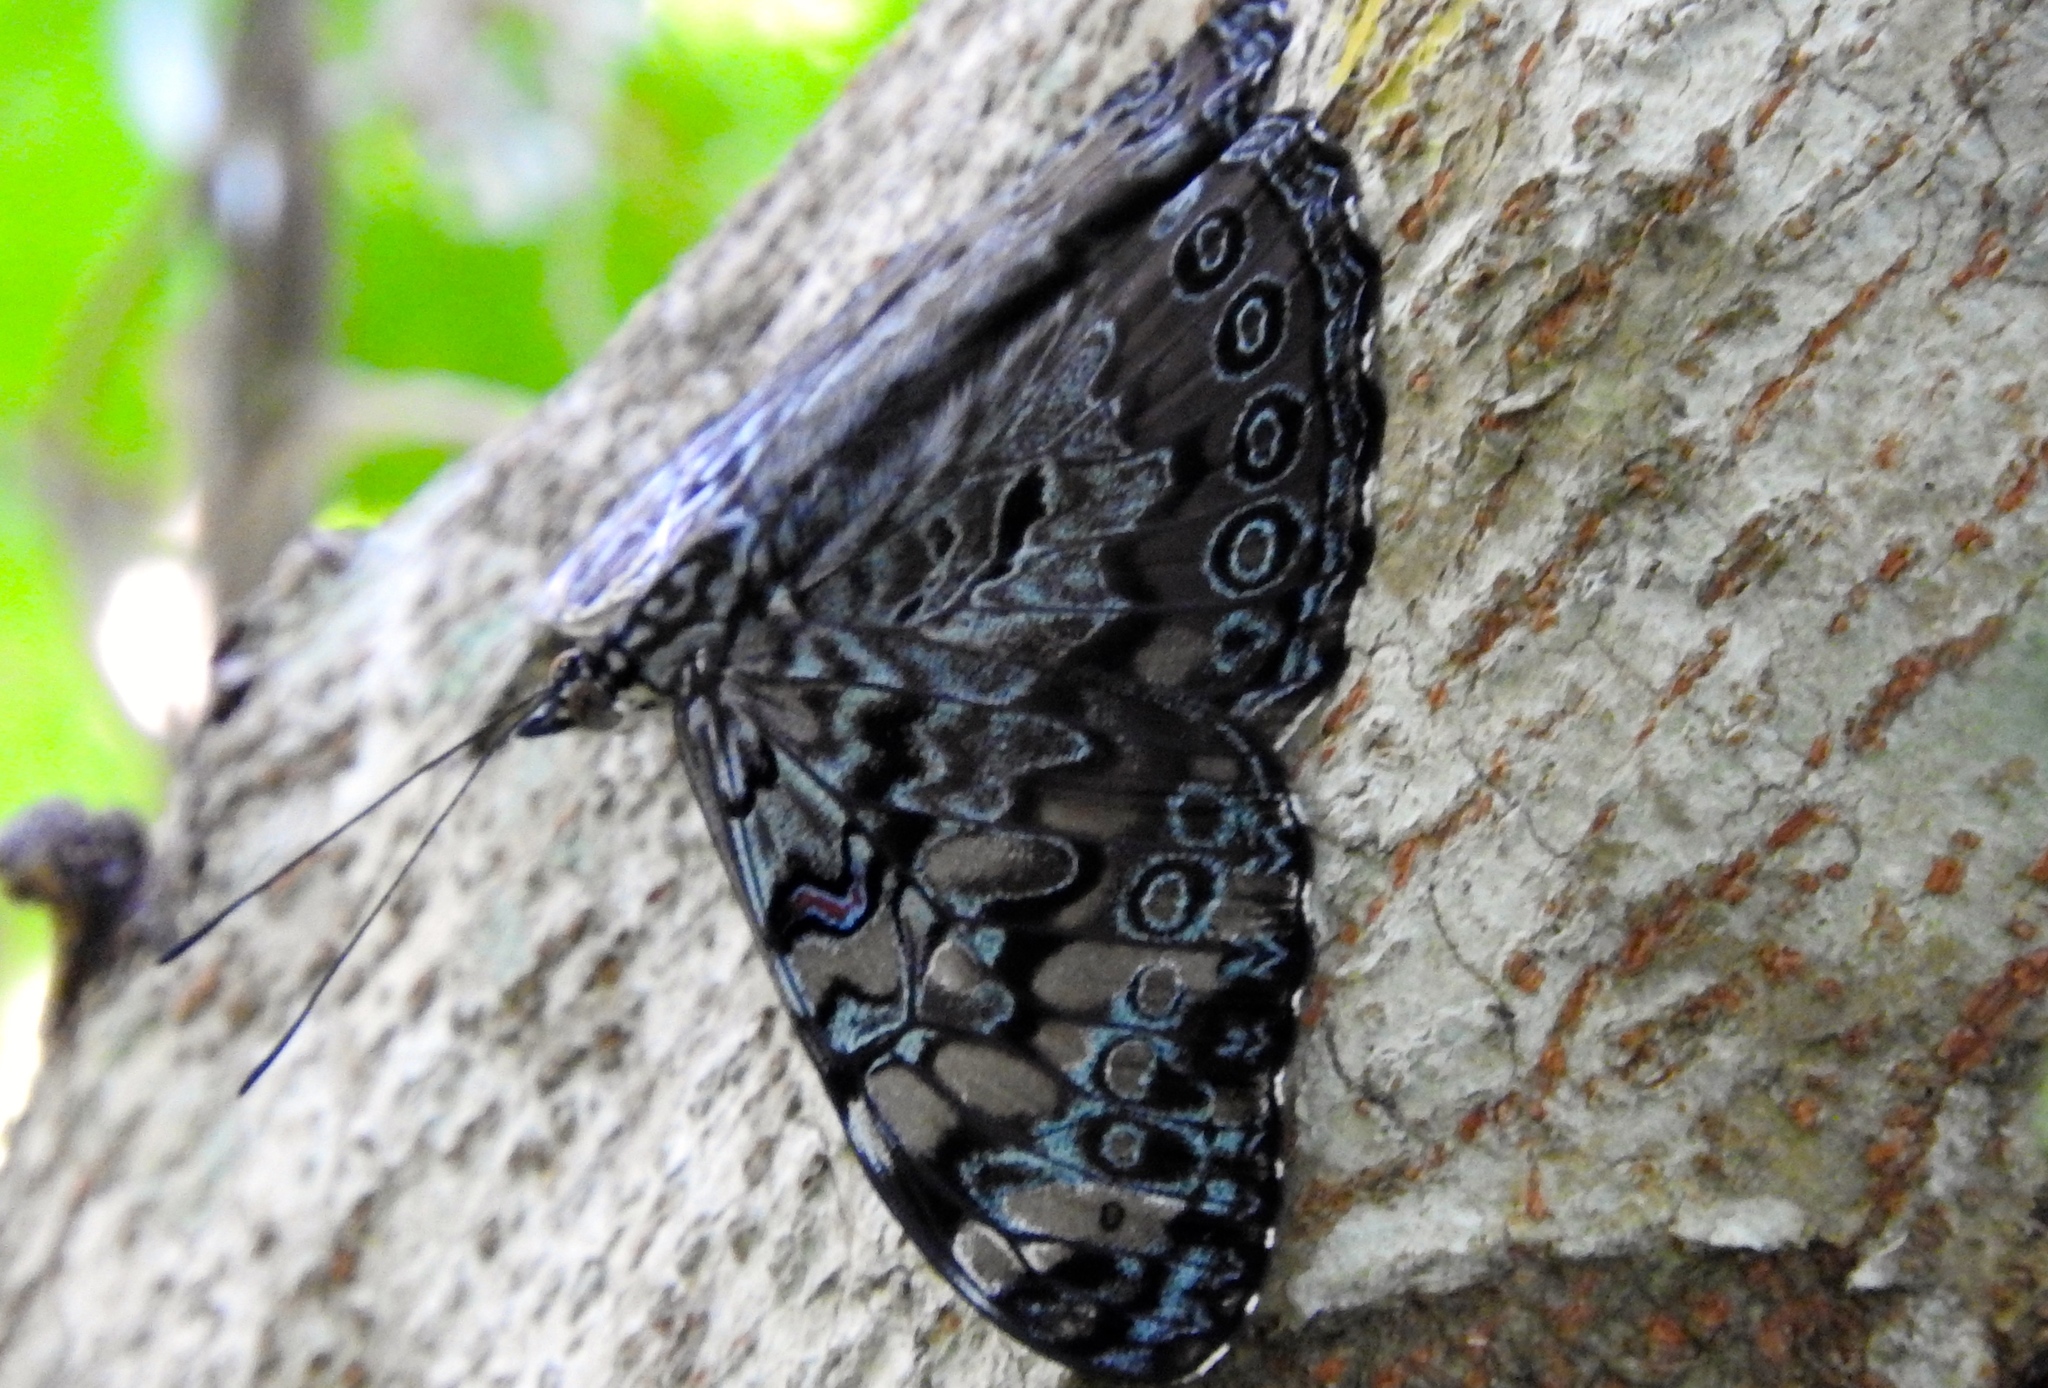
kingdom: Animalia
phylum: Arthropoda
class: Insecta
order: Lepidoptera
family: Nymphalidae
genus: Hamadryas
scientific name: Hamadryas guatemalena
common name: Guatemalan cracker
